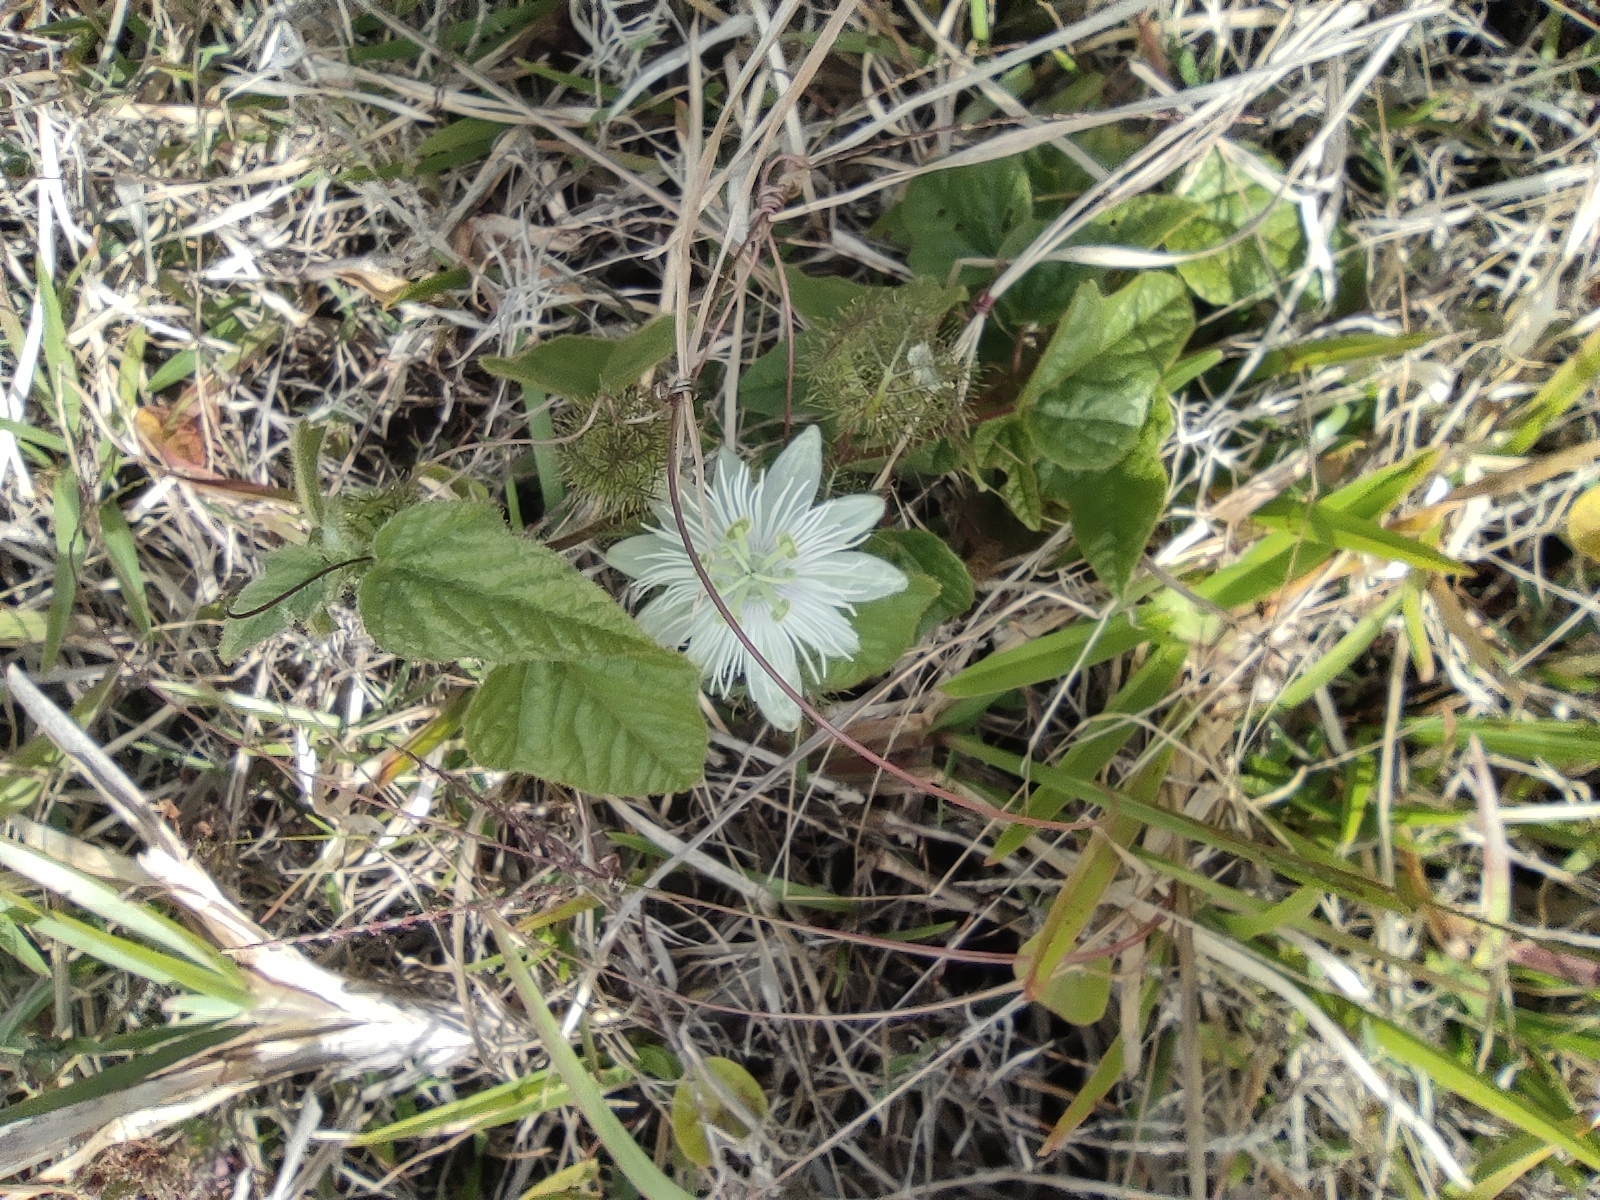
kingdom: Plantae
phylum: Tracheophyta
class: Magnoliopsida
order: Malpighiales
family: Passifloraceae
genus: Passiflora
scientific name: Passiflora foetida
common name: Fetid passionflower
